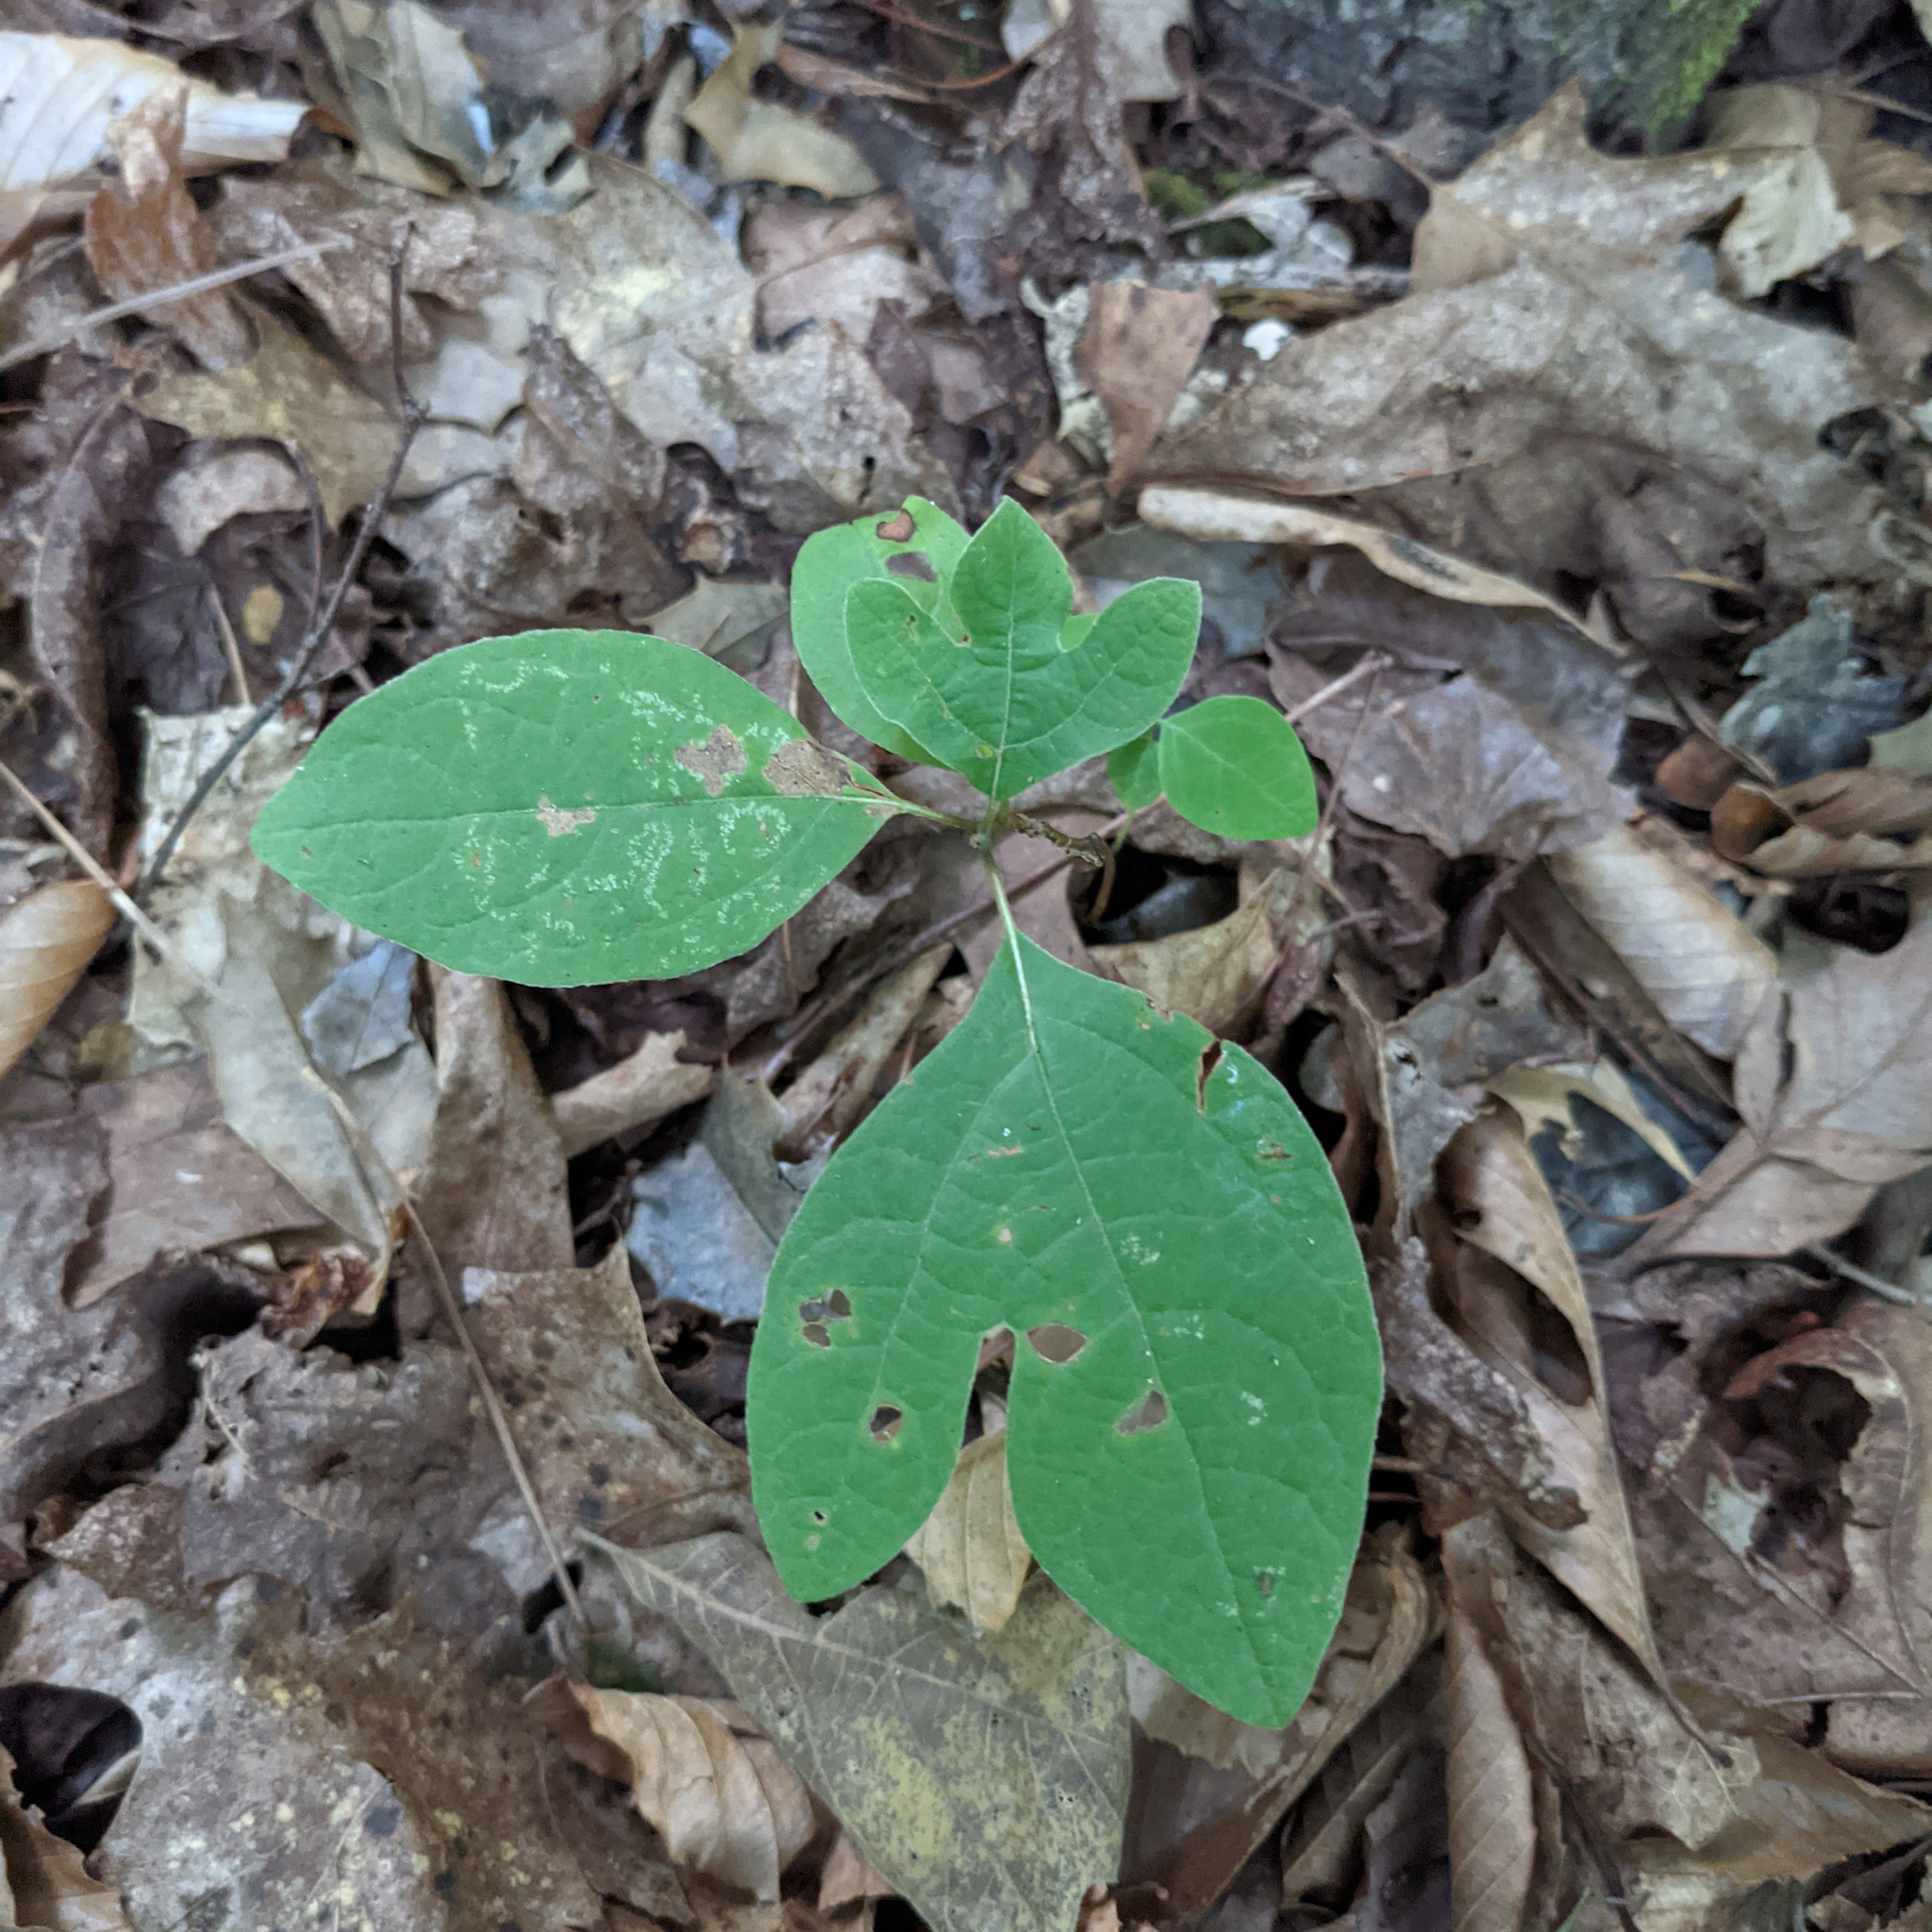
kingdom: Plantae
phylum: Tracheophyta
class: Magnoliopsida
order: Laurales
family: Lauraceae
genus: Sassafras
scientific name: Sassafras albidum
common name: Sassafras
